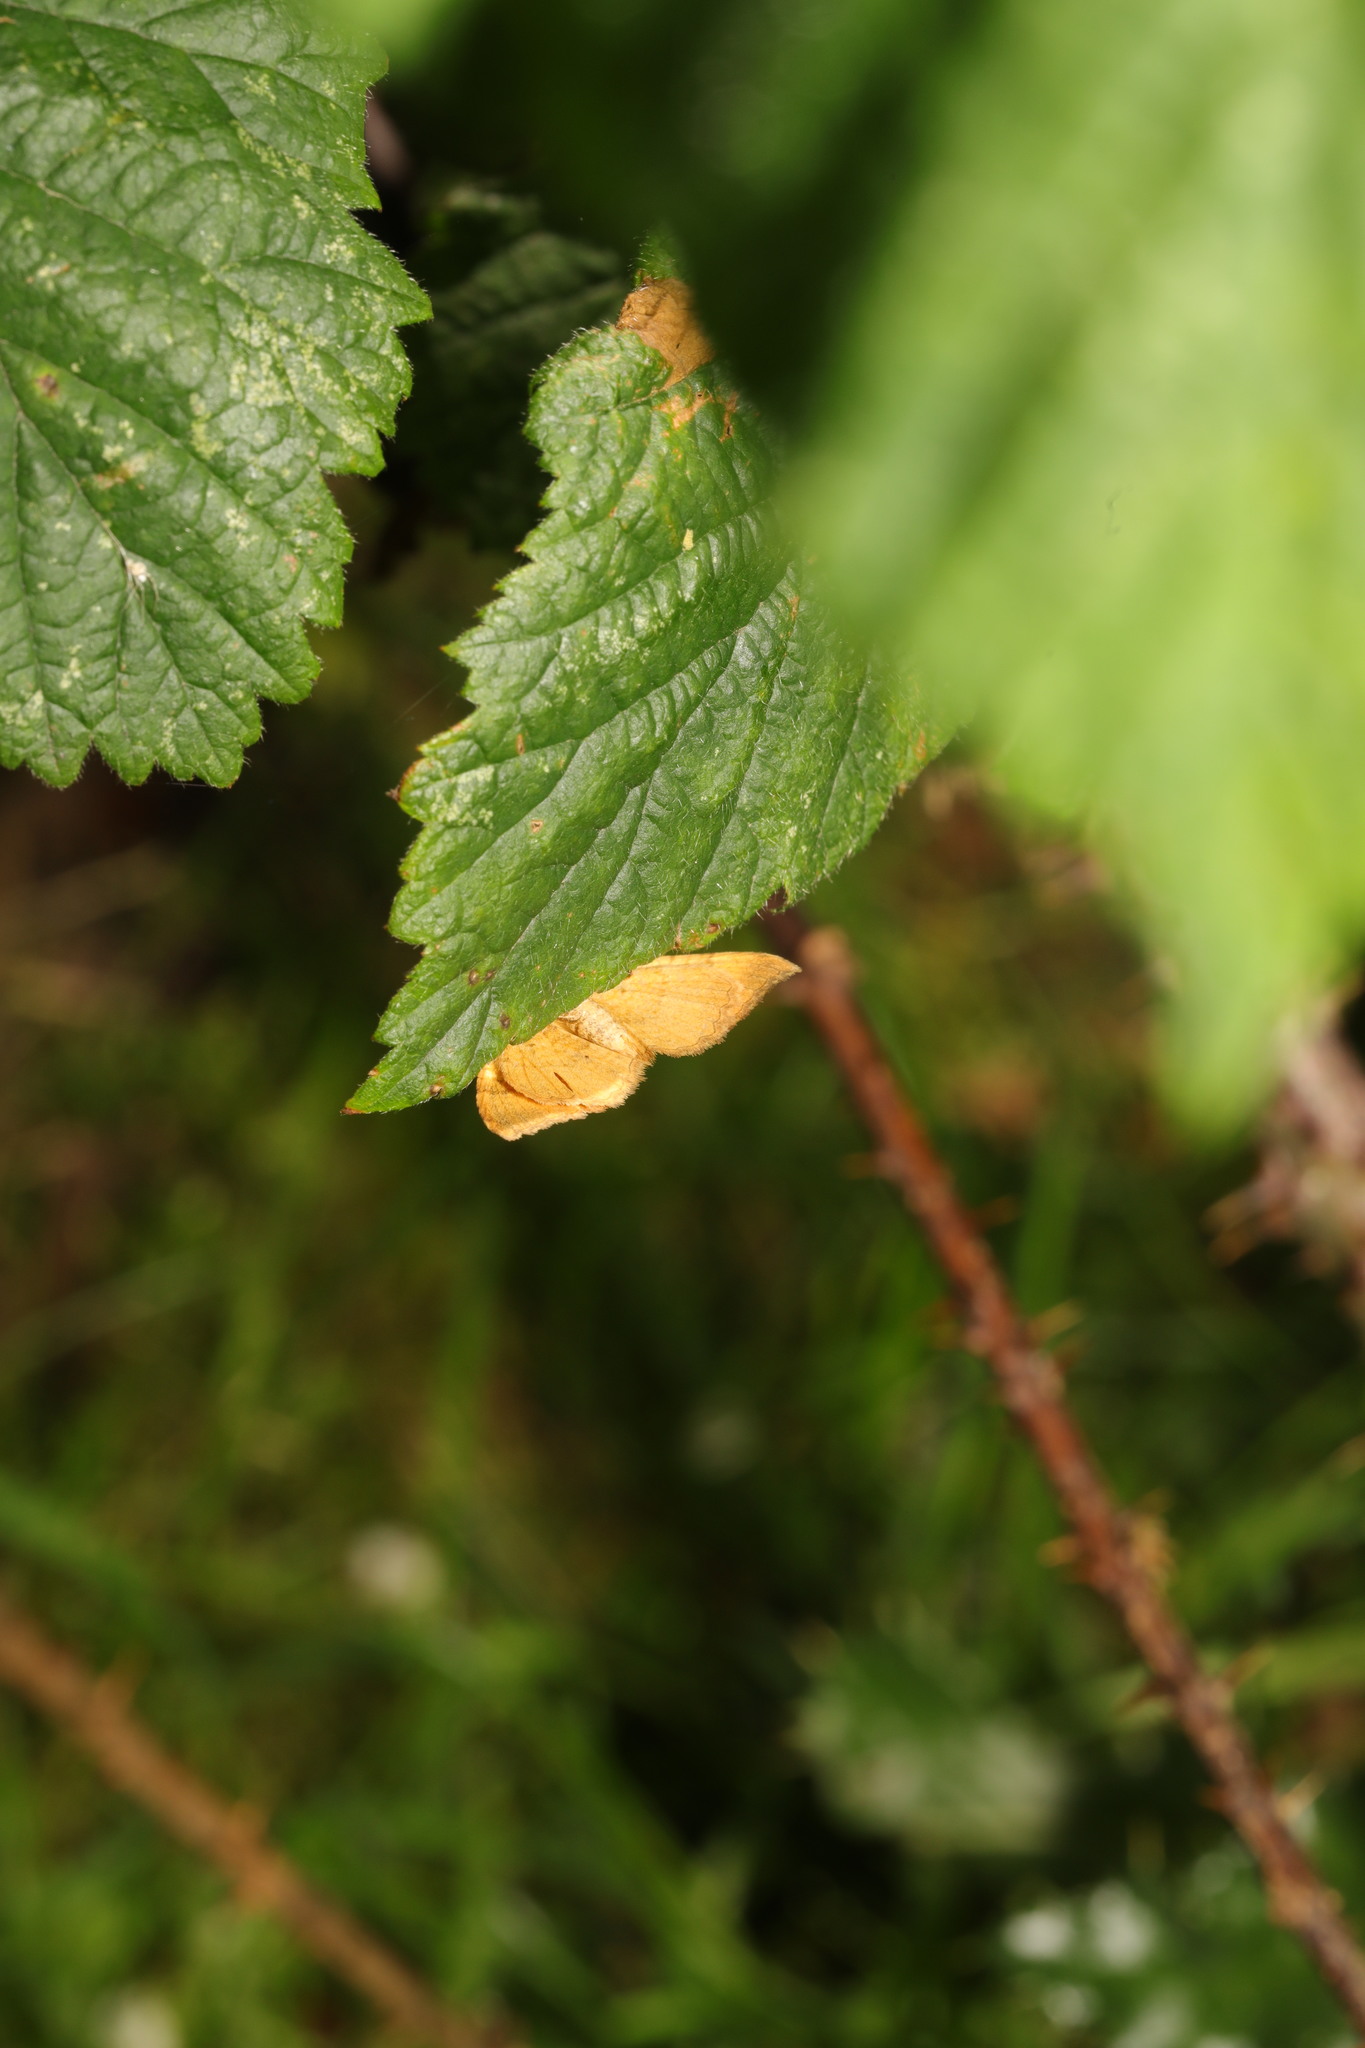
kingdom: Animalia
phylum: Arthropoda
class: Insecta
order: Lepidoptera
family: Geometridae
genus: Camptogramma
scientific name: Camptogramma bilineata
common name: Yellow shell
